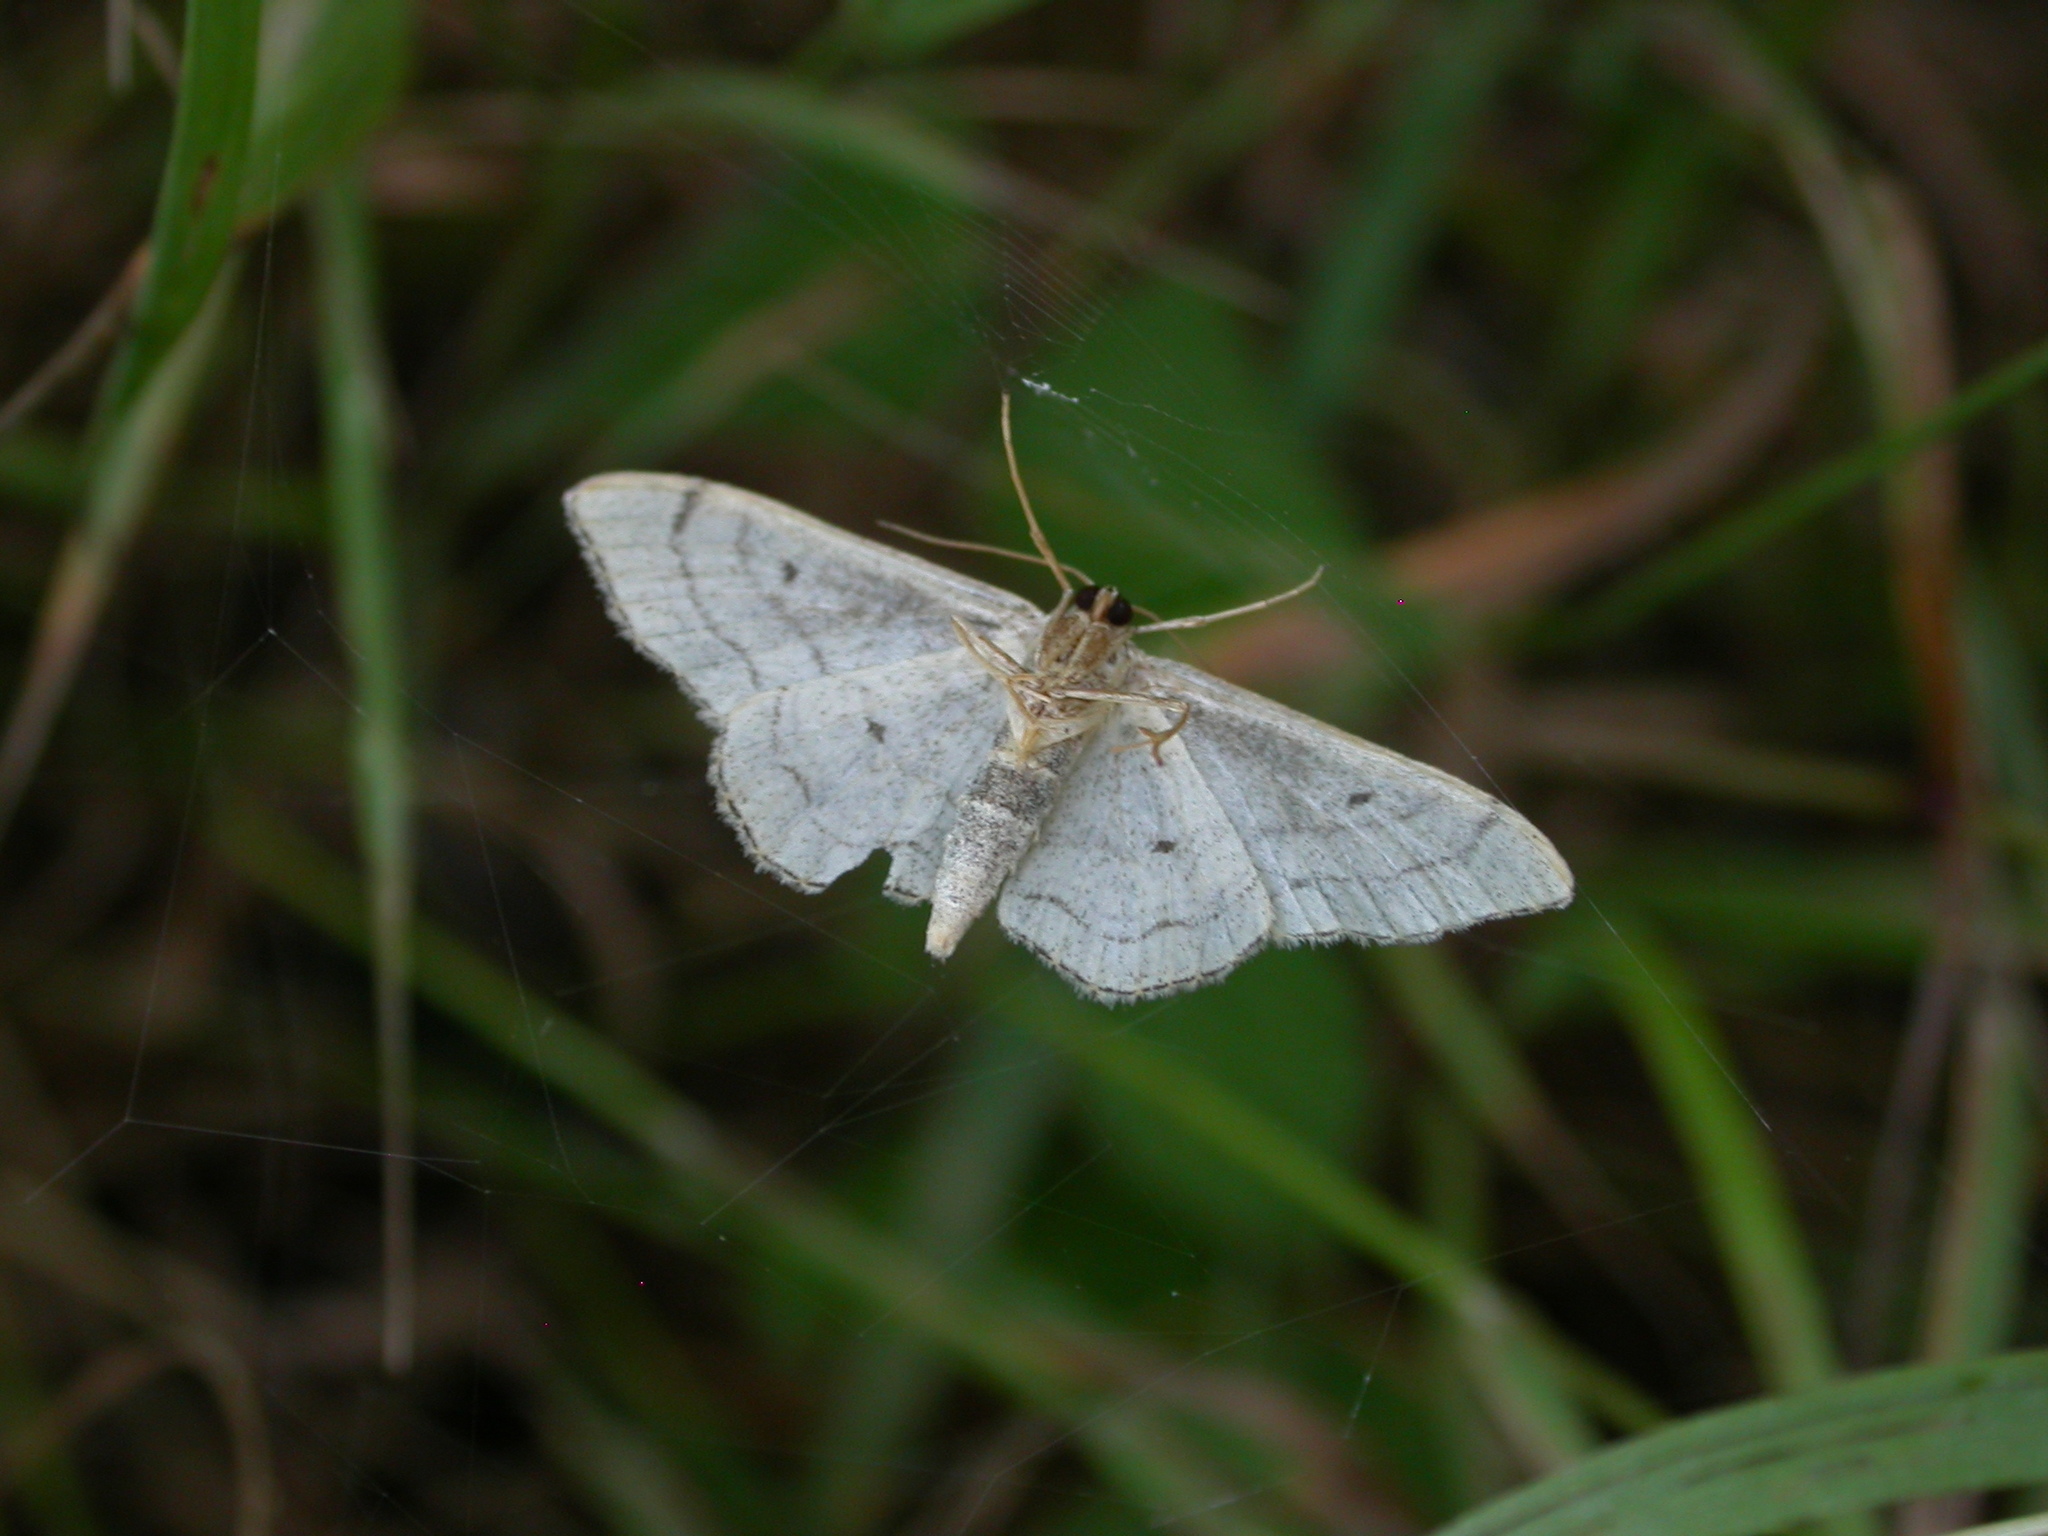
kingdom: Animalia
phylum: Arthropoda
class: Insecta
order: Lepidoptera
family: Geometridae
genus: Idaea
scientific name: Idaea aversata
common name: Riband wave
